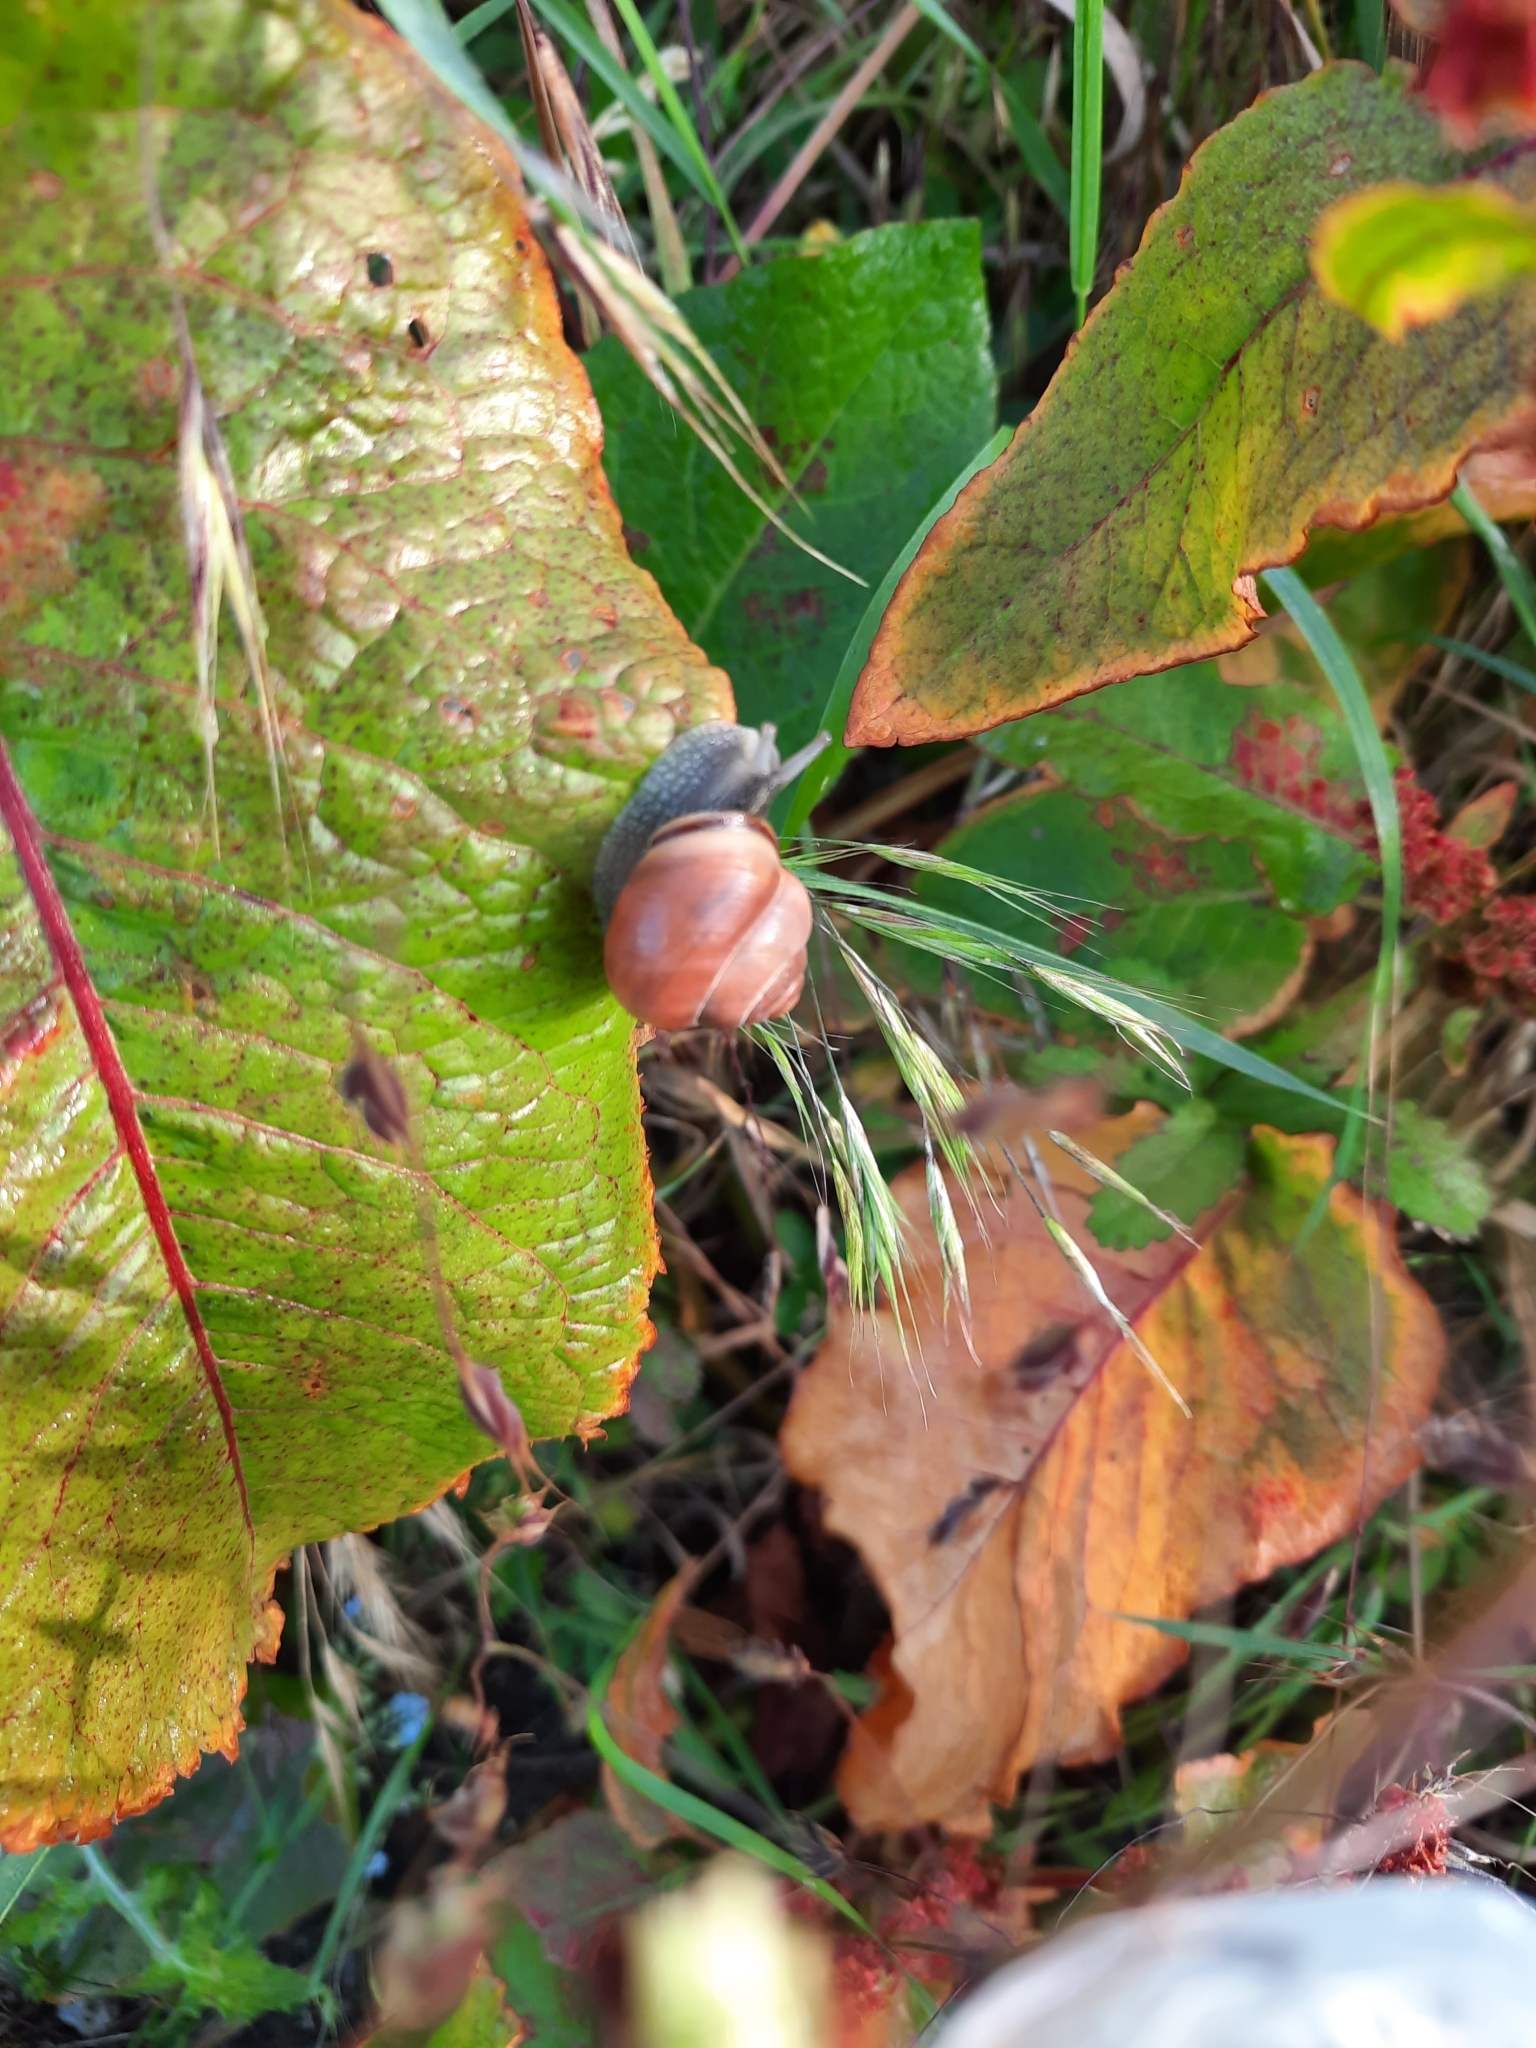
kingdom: Animalia
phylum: Mollusca
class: Gastropoda
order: Stylommatophora
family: Helicidae
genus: Cepaea
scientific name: Cepaea nemoralis
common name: Grovesnail
